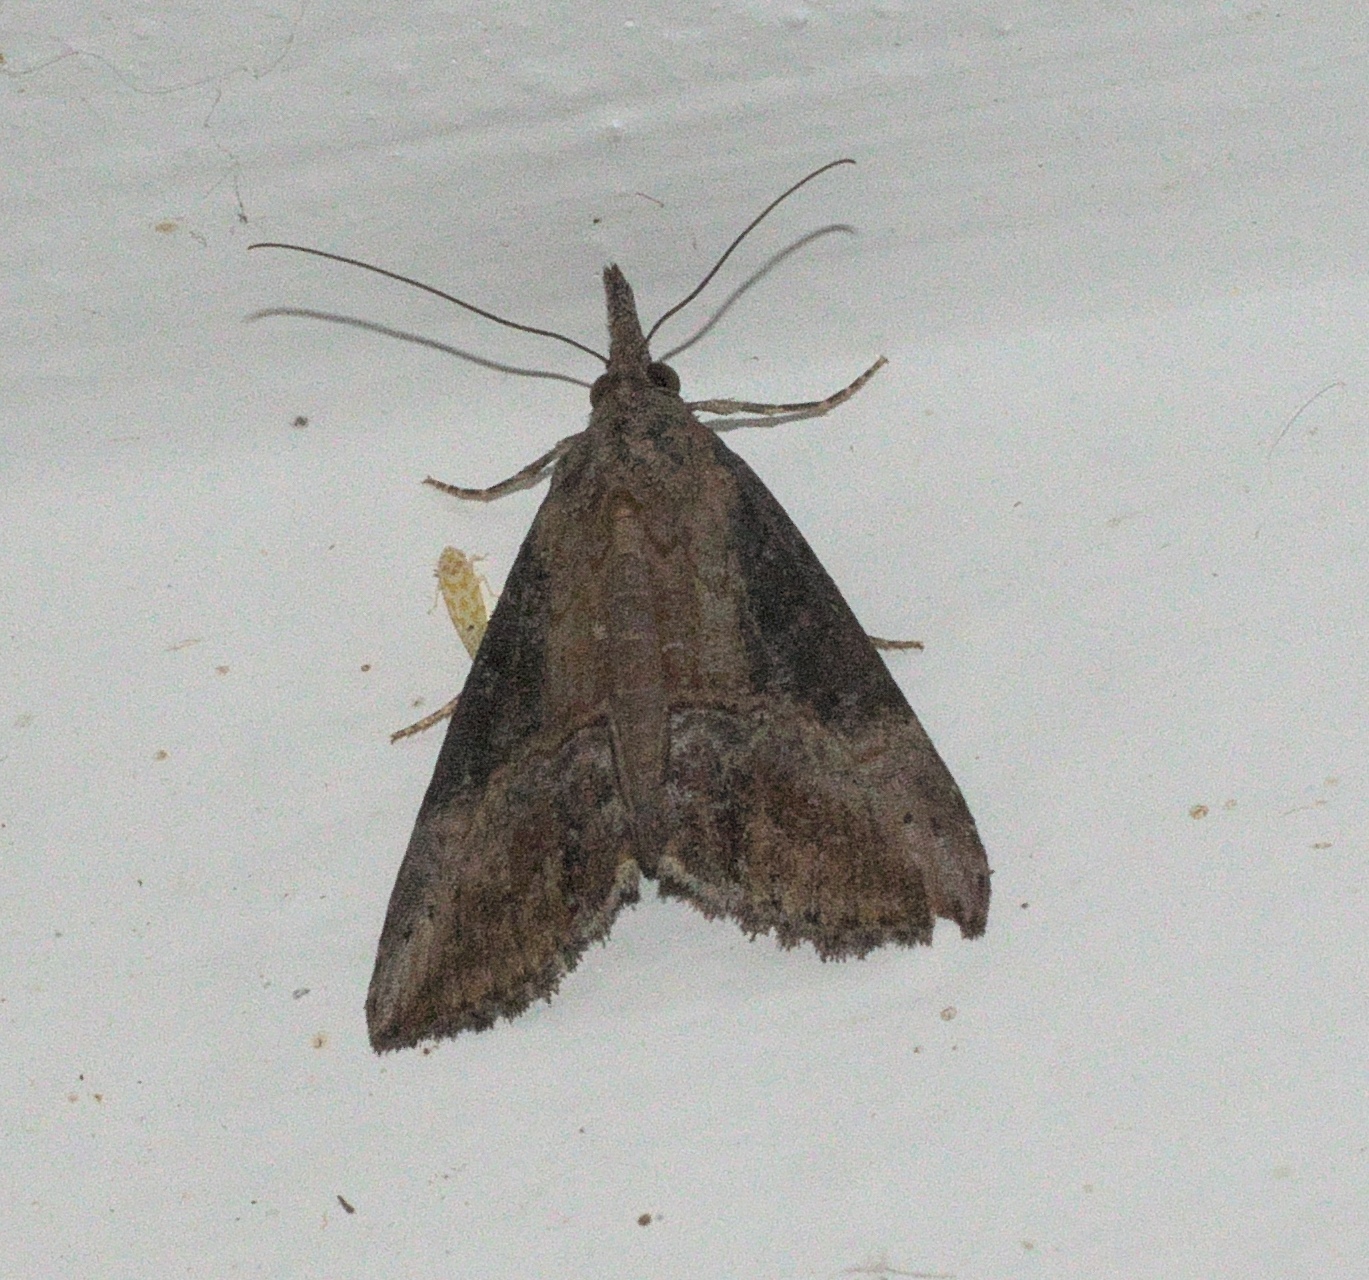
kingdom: Animalia
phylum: Arthropoda
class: Insecta
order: Lepidoptera
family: Erebidae
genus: Hypena
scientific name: Hypena scabra
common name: Green cloverworm
